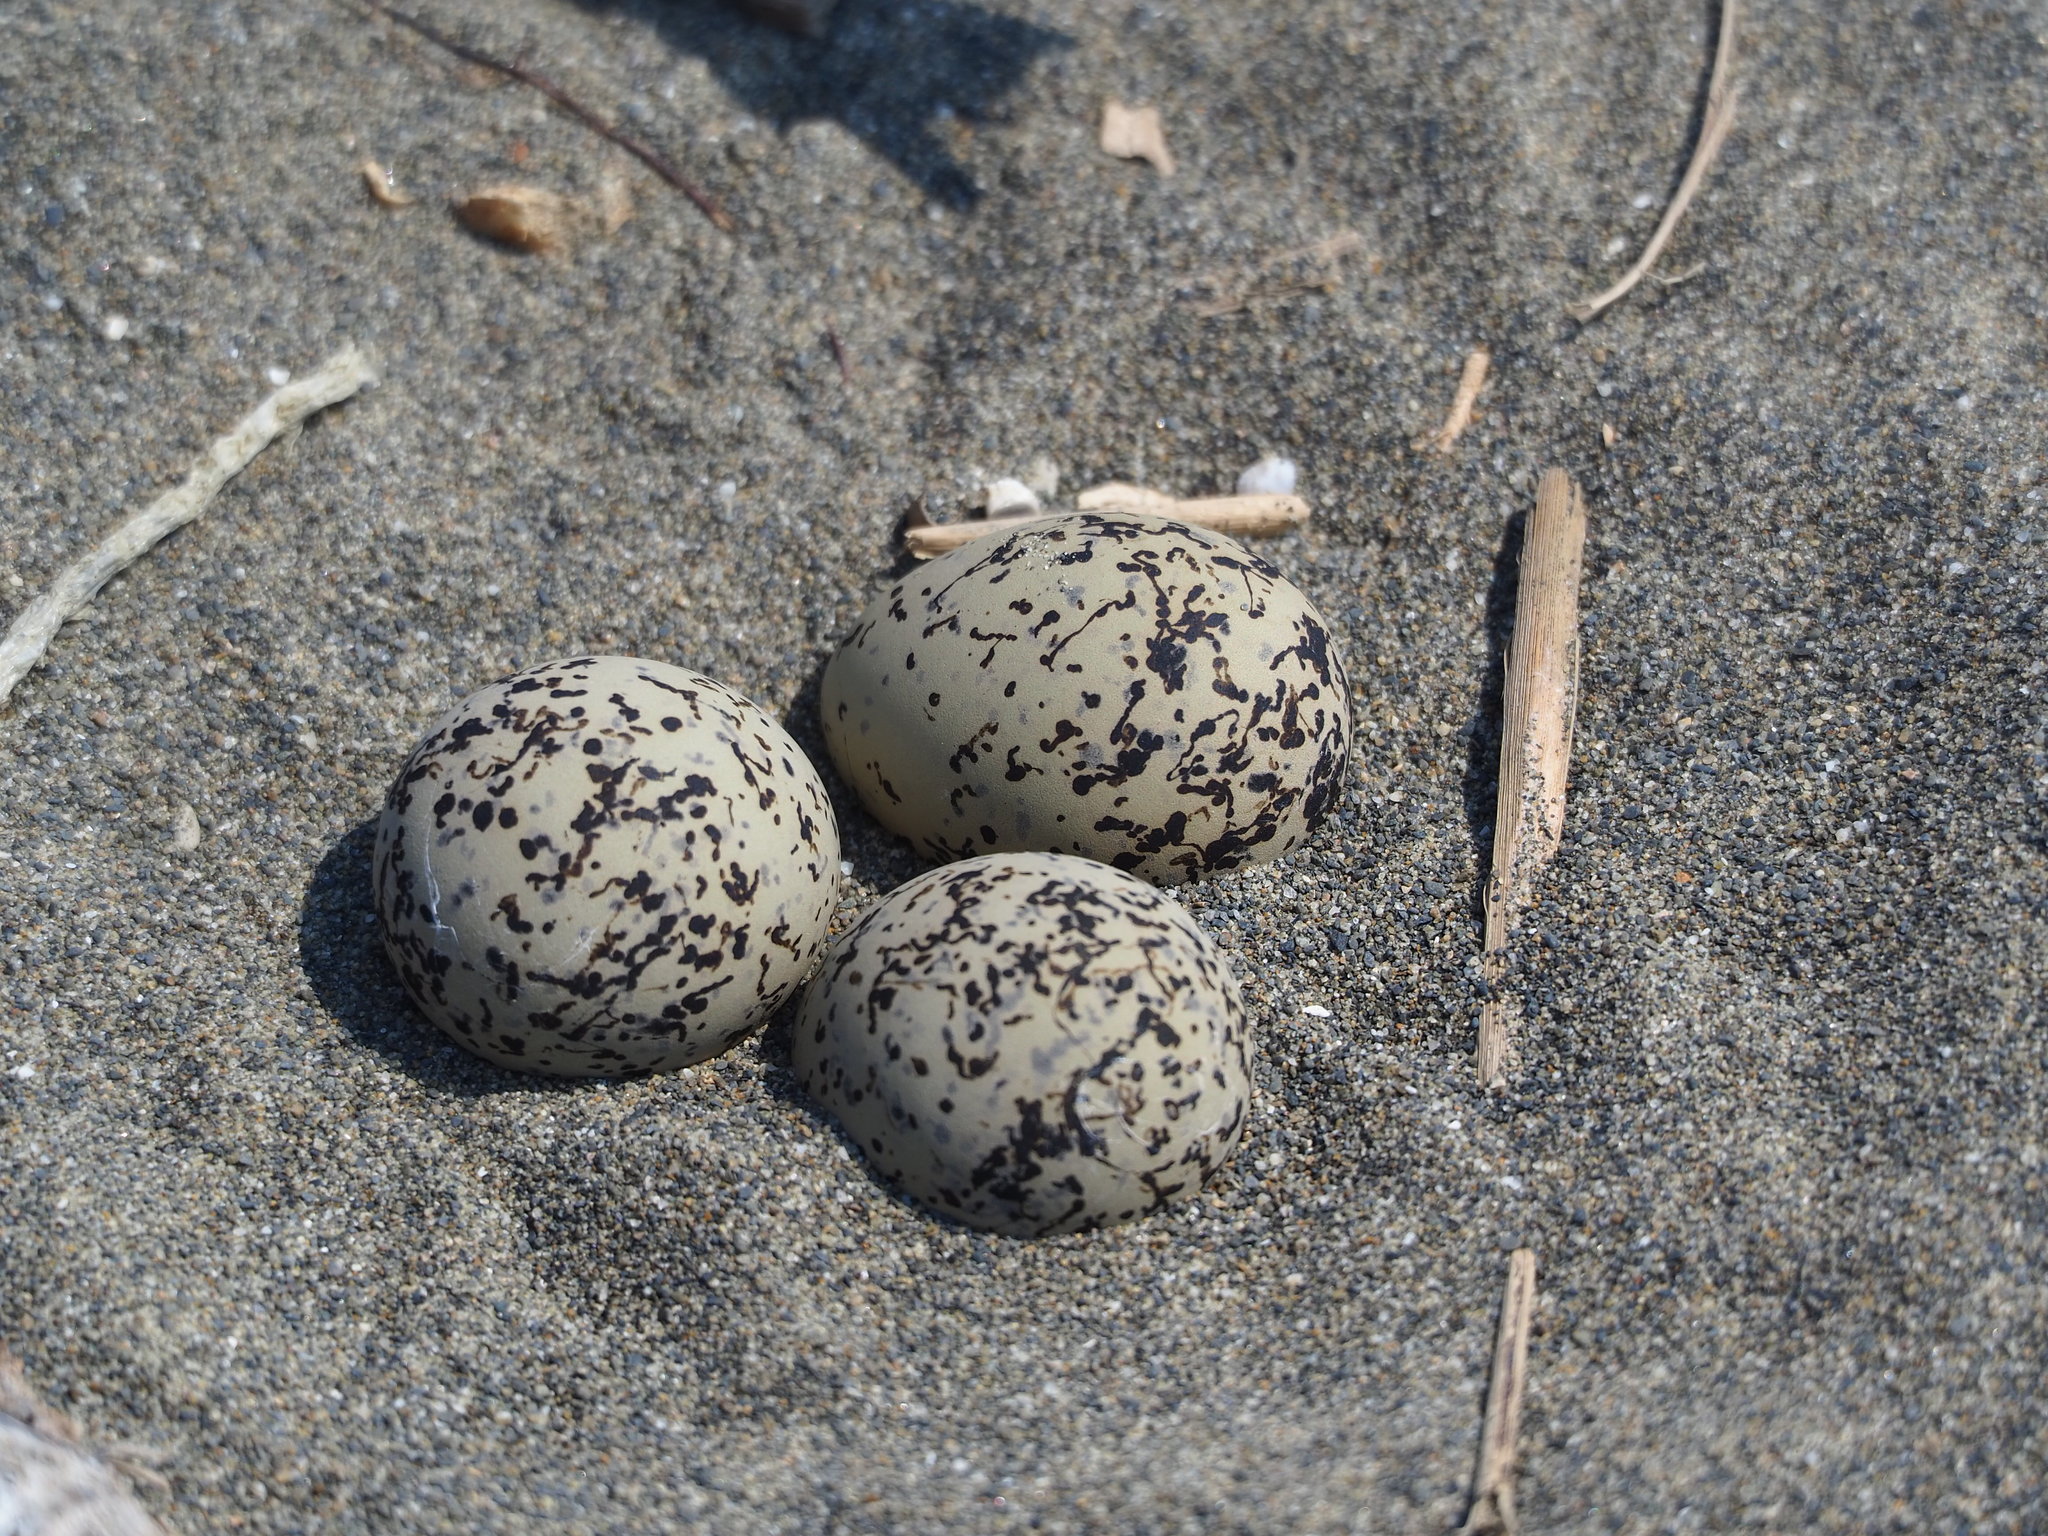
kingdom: Animalia
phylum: Chordata
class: Aves
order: Charadriiformes
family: Charadriidae
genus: Charadrius
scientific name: Charadrius alexandrinus
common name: Kentish plover
